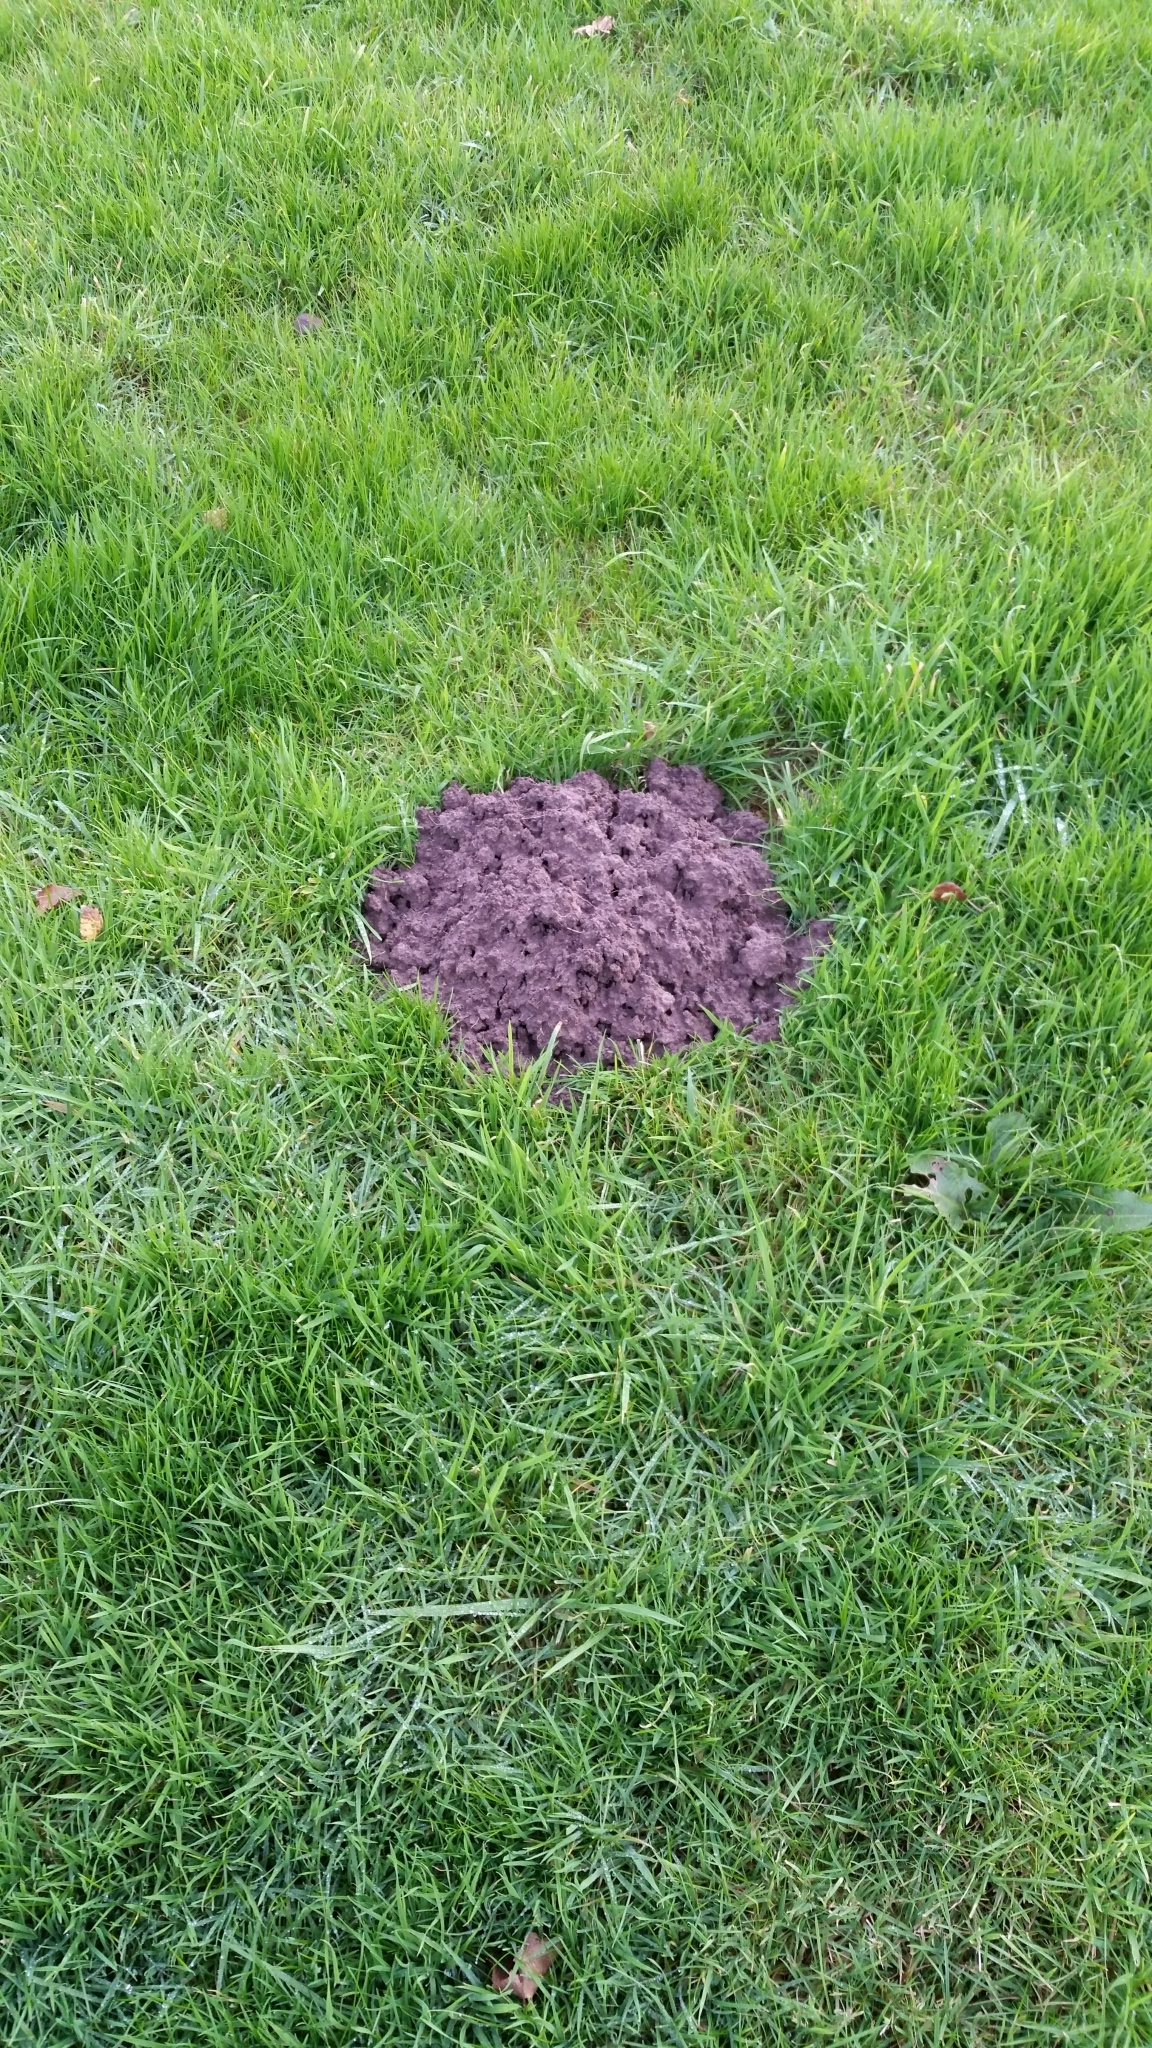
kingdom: Animalia
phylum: Chordata
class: Mammalia
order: Soricomorpha
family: Talpidae
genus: Talpa
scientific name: Talpa europaea
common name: European mole
